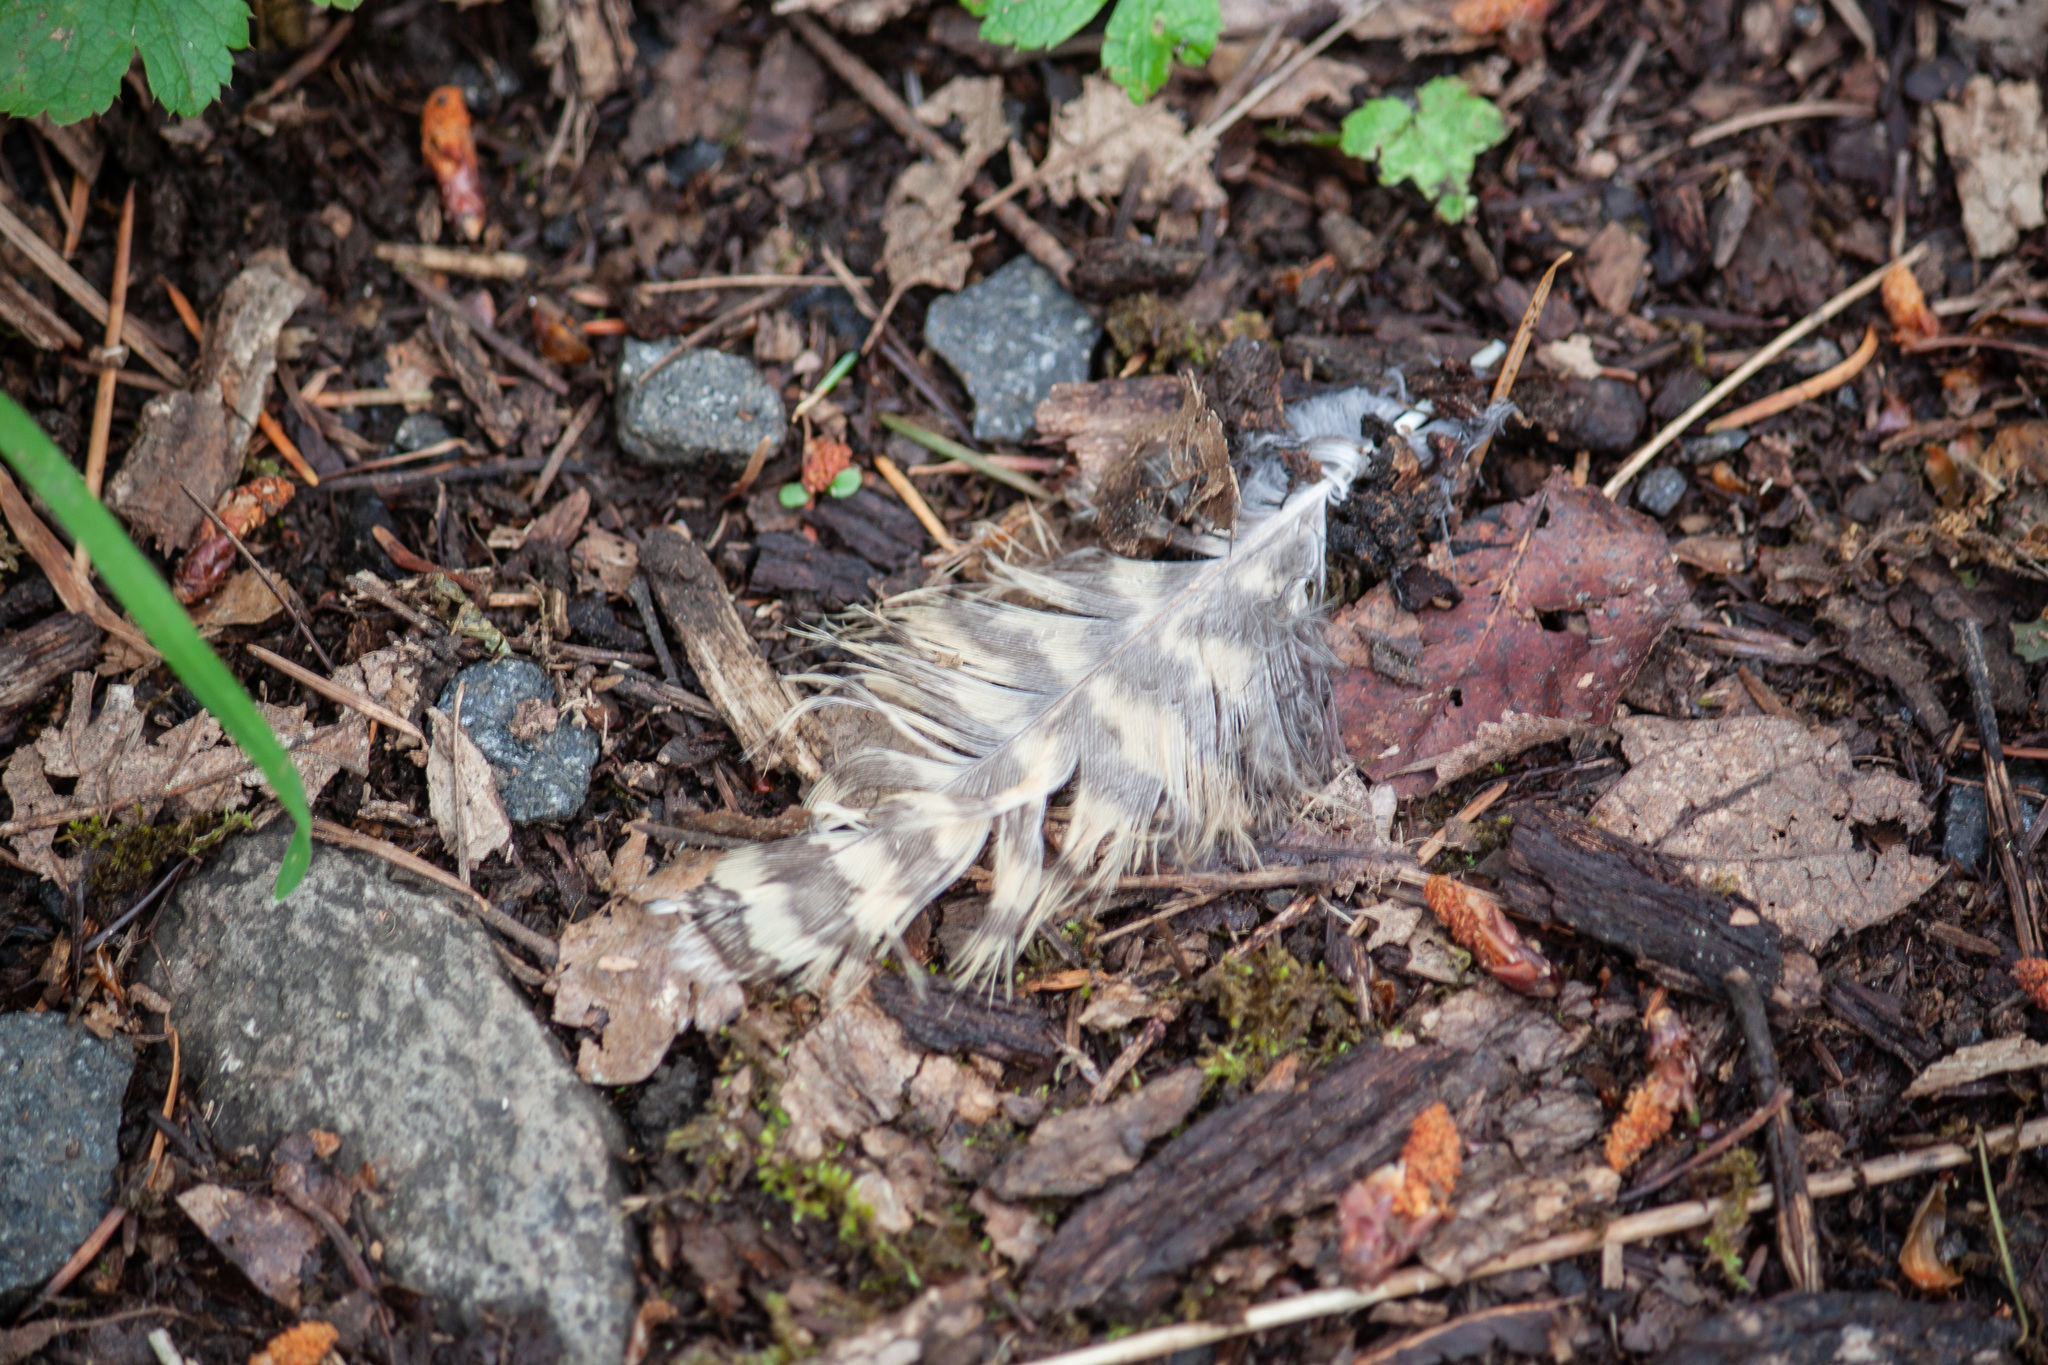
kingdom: Animalia
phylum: Chordata
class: Aves
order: Strigiformes
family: Strigidae
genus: Bubo
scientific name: Bubo virginianus
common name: Great horned owl
